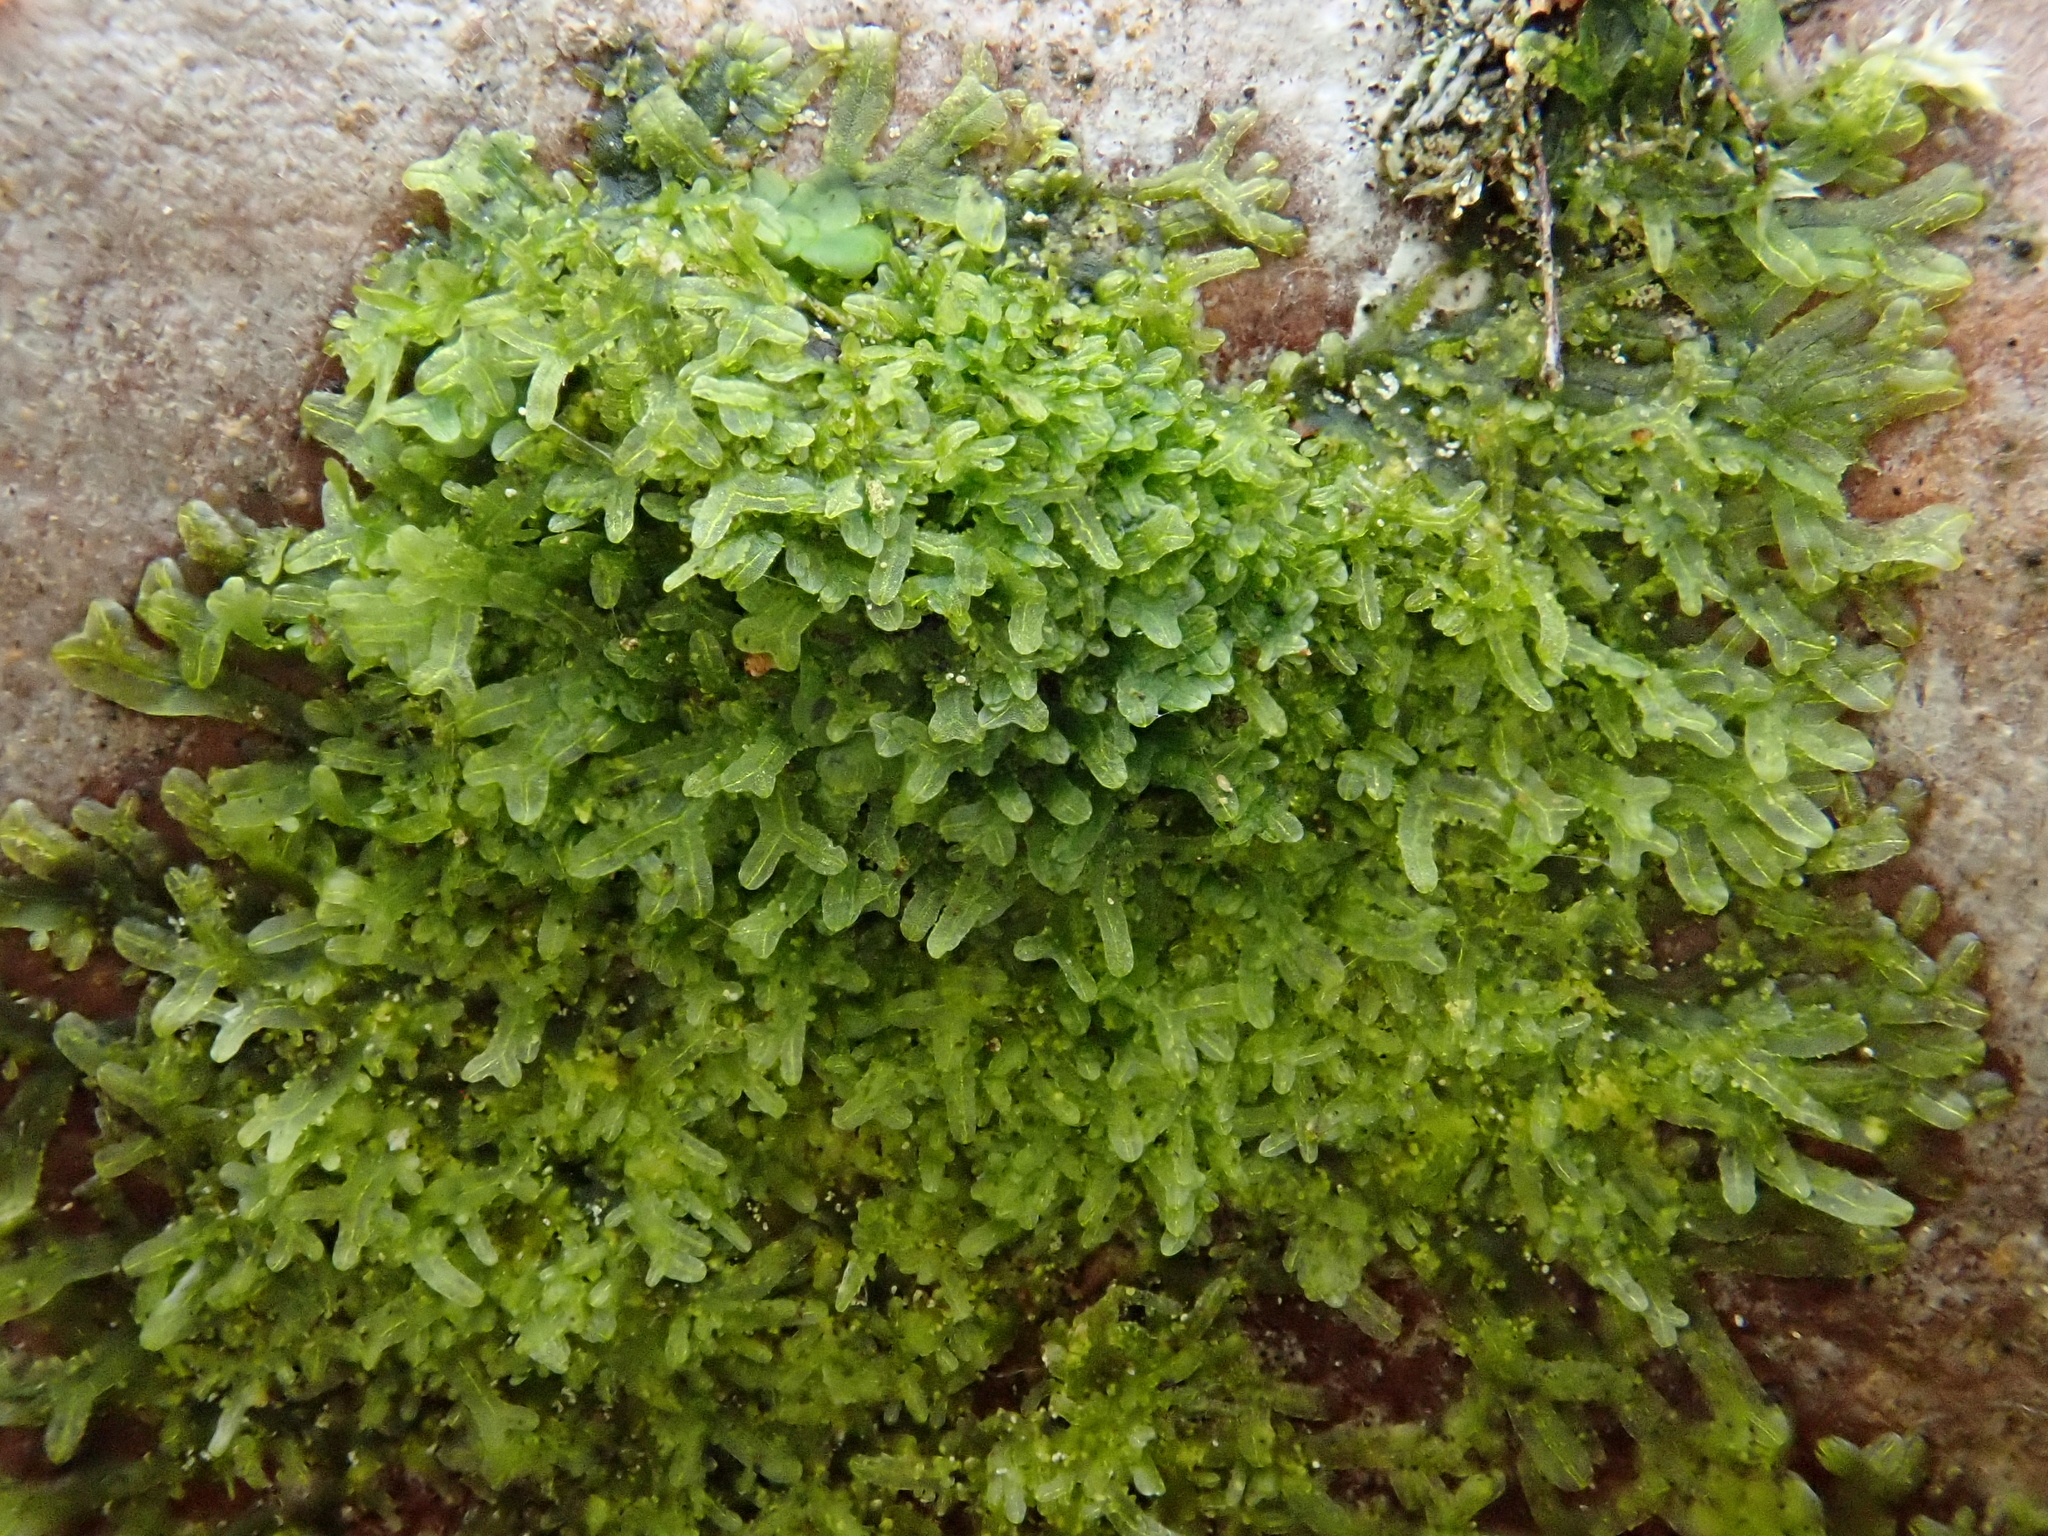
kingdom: Plantae
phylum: Marchantiophyta
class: Jungermanniopsida
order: Metzgeriales
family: Metzgeriaceae
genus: Metzgeria
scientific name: Metzgeria furcata
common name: Forked veilwort
